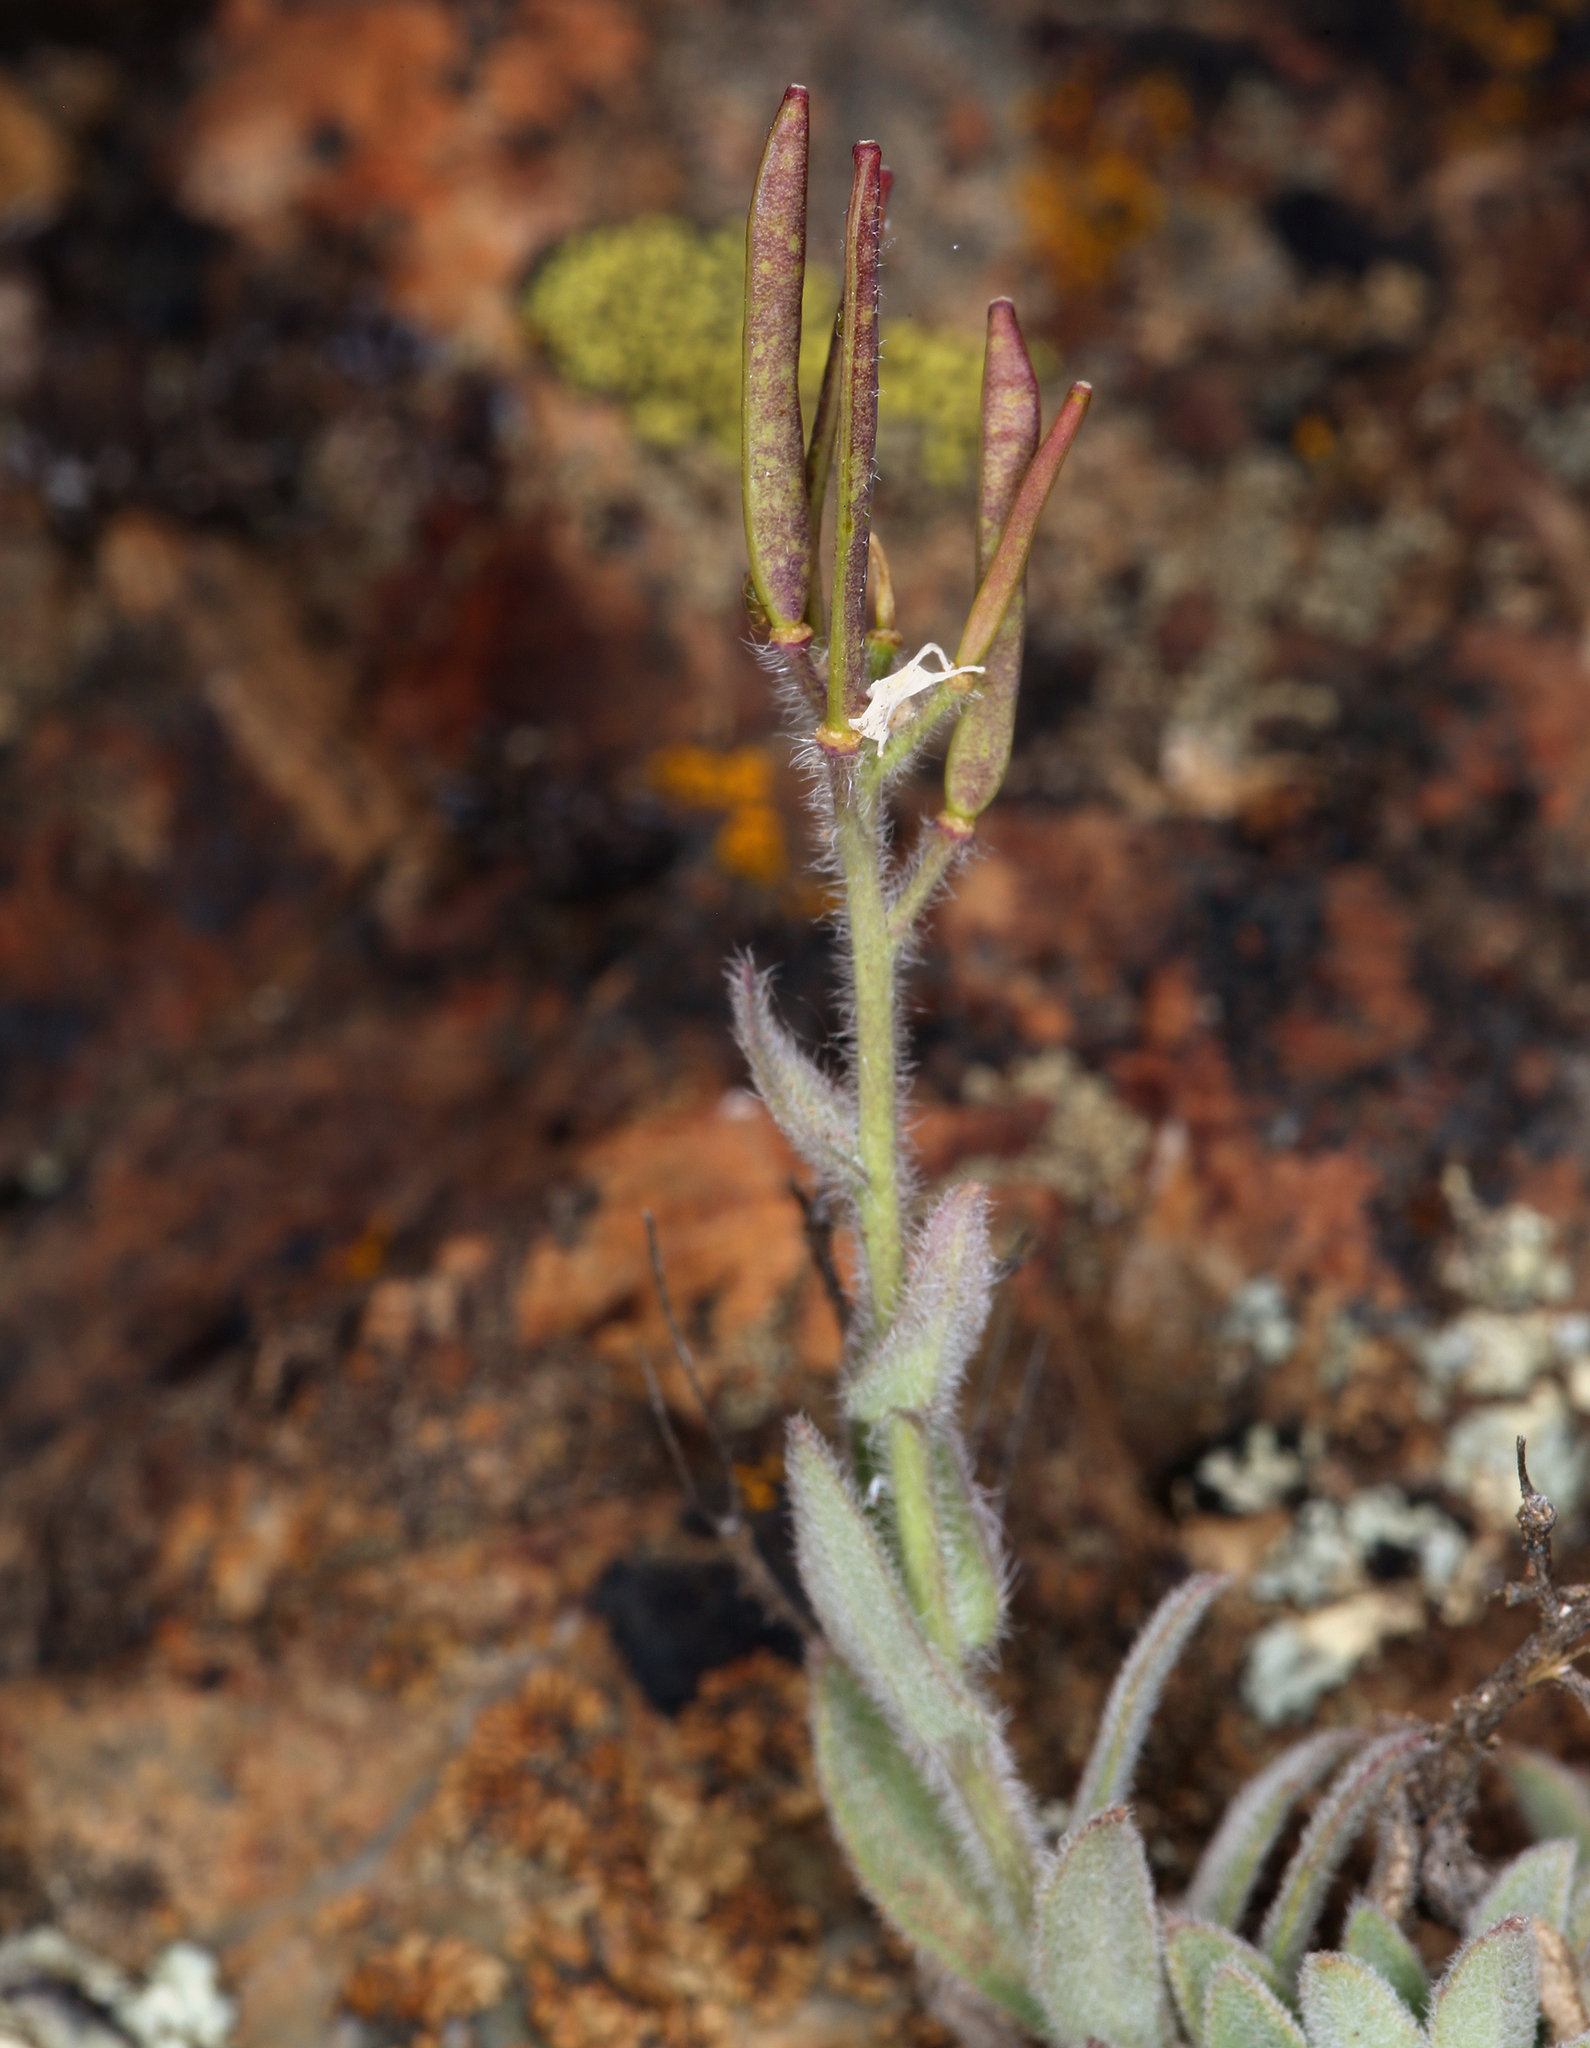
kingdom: Plantae
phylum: Tracheophyta
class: Magnoliopsida
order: Brassicales
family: Brassicaceae
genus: Boechera
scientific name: Boechera breweri
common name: Brewer's rockcress
